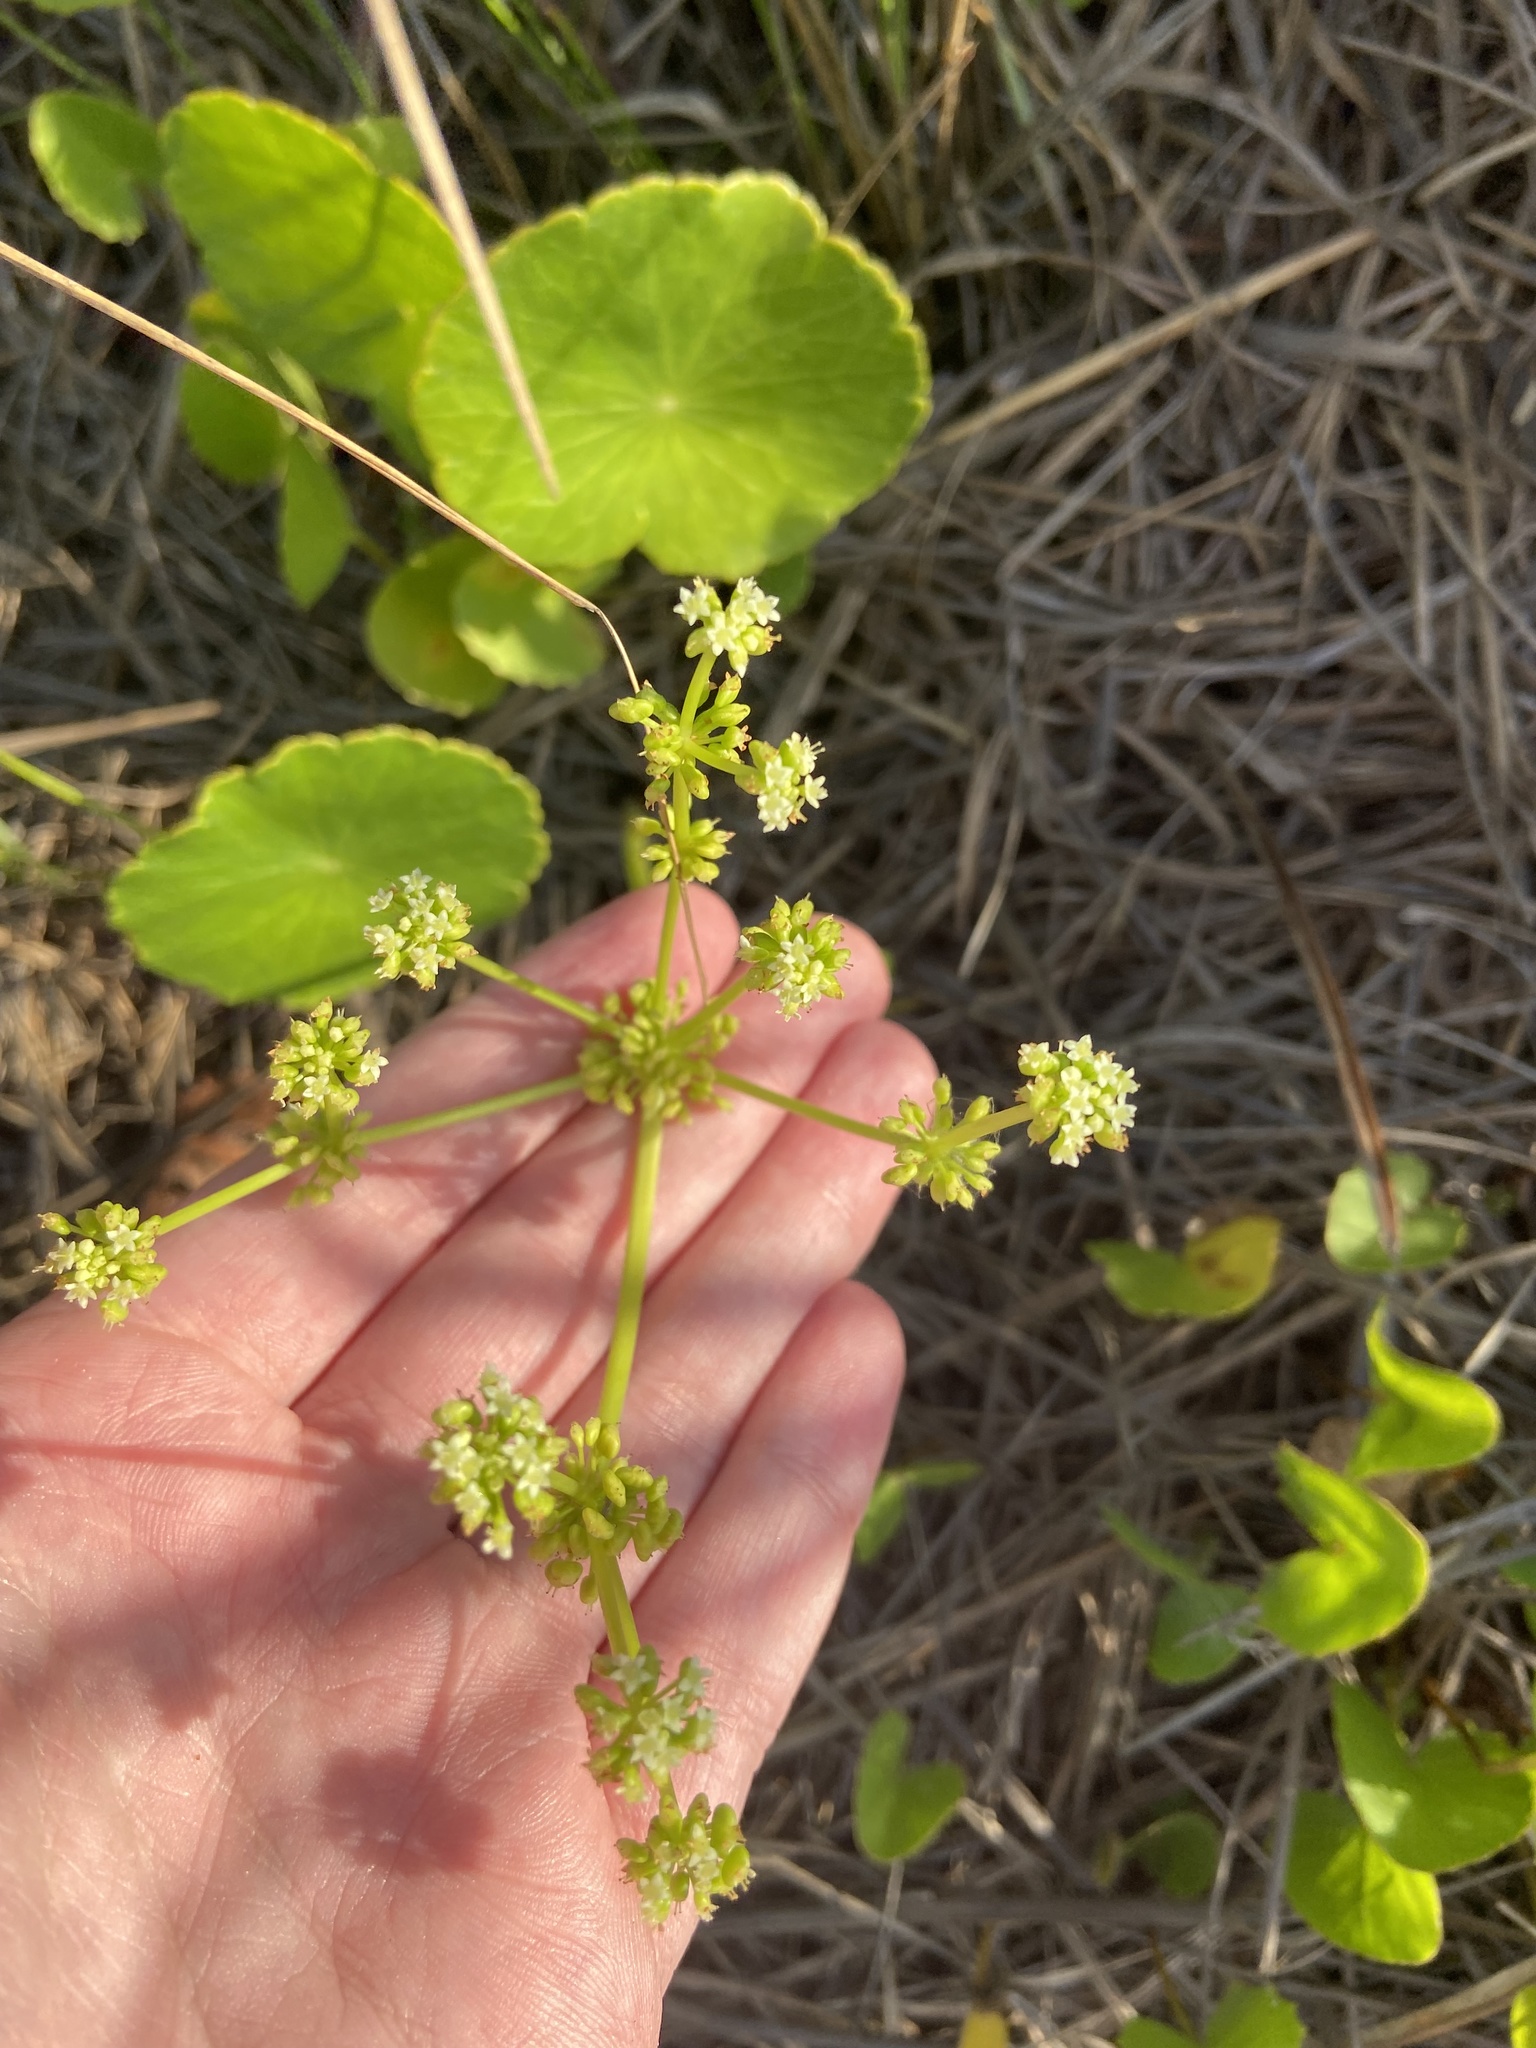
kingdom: Plantae
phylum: Tracheophyta
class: Magnoliopsida
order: Apiales
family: Araliaceae
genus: Hydrocotyle
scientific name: Hydrocotyle bonariensis
